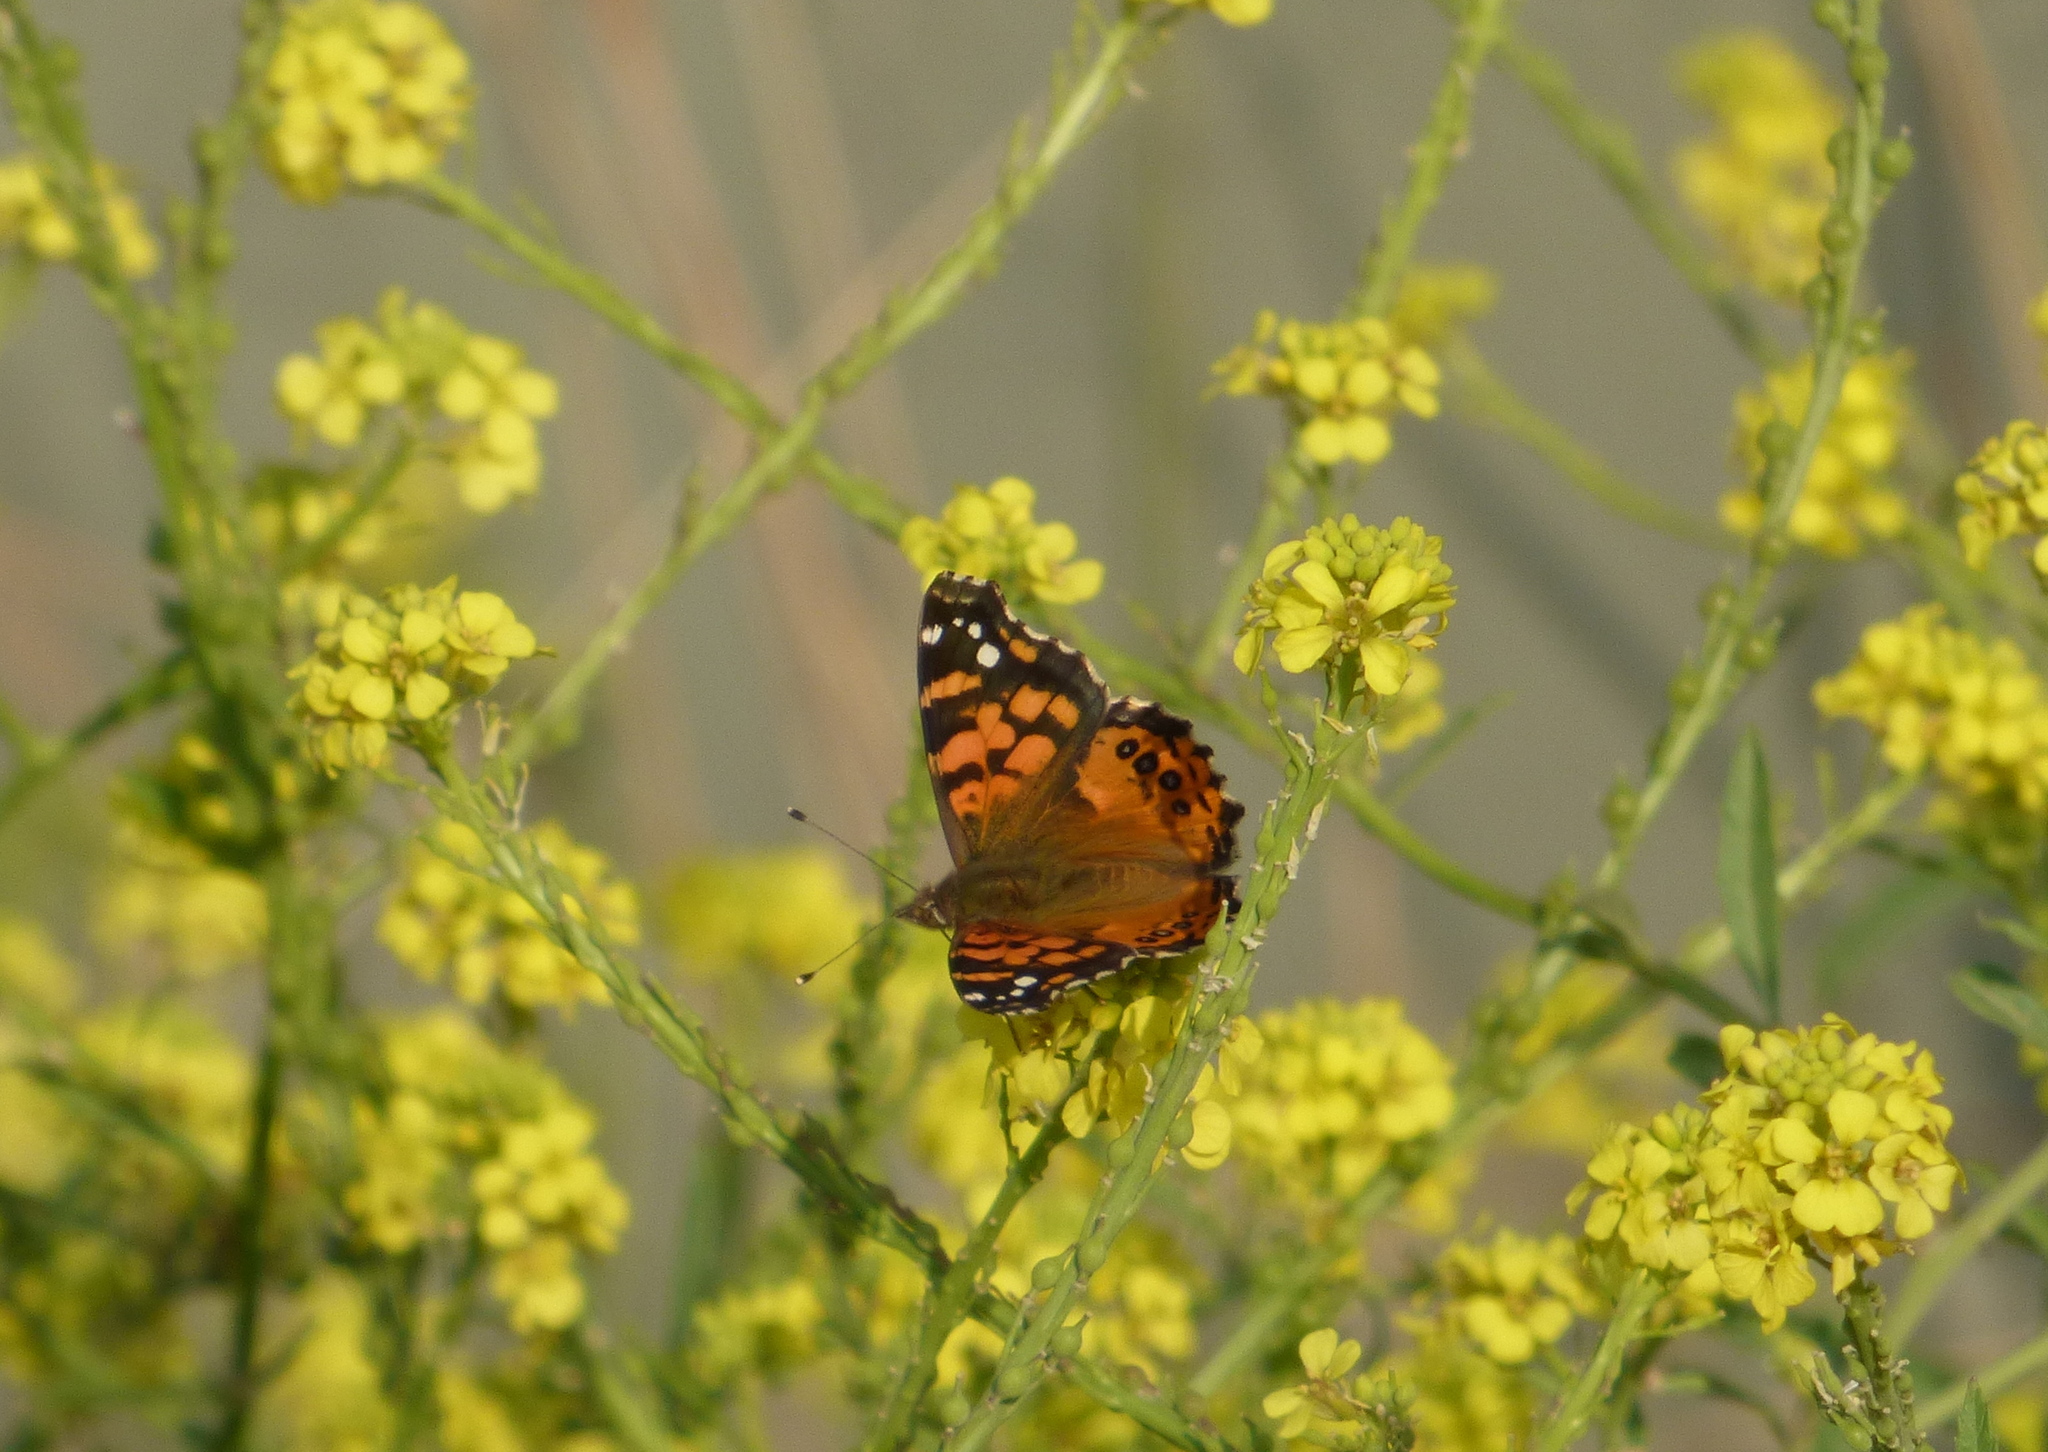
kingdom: Animalia
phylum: Arthropoda
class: Insecta
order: Lepidoptera
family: Nymphalidae
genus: Vanessa
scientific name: Vanessa carye
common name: Subtropical lady
